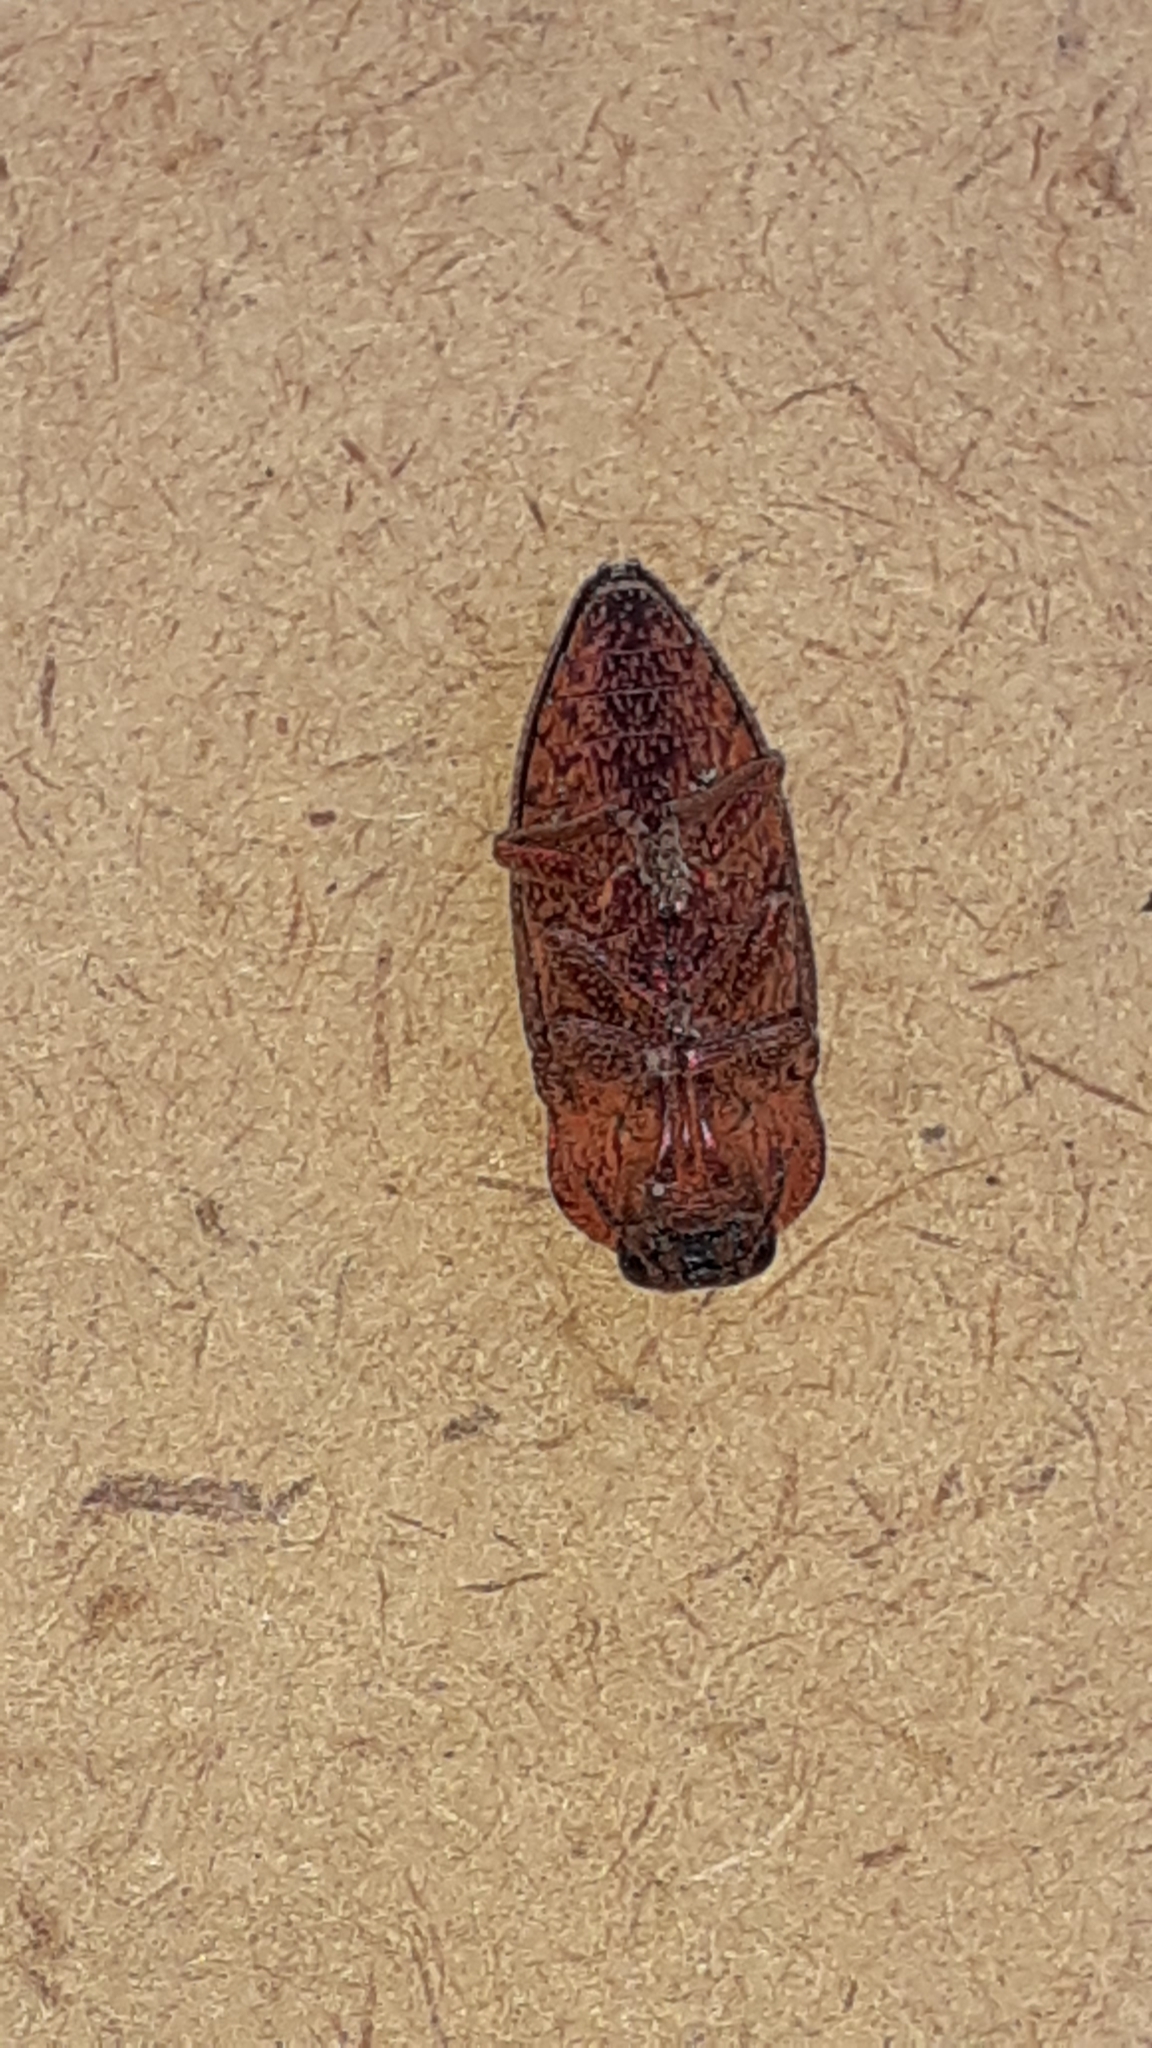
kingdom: Animalia
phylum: Arthropoda
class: Insecta
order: Coleoptera
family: Buprestidae
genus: Oedisterna
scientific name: Oedisterna cuprea
